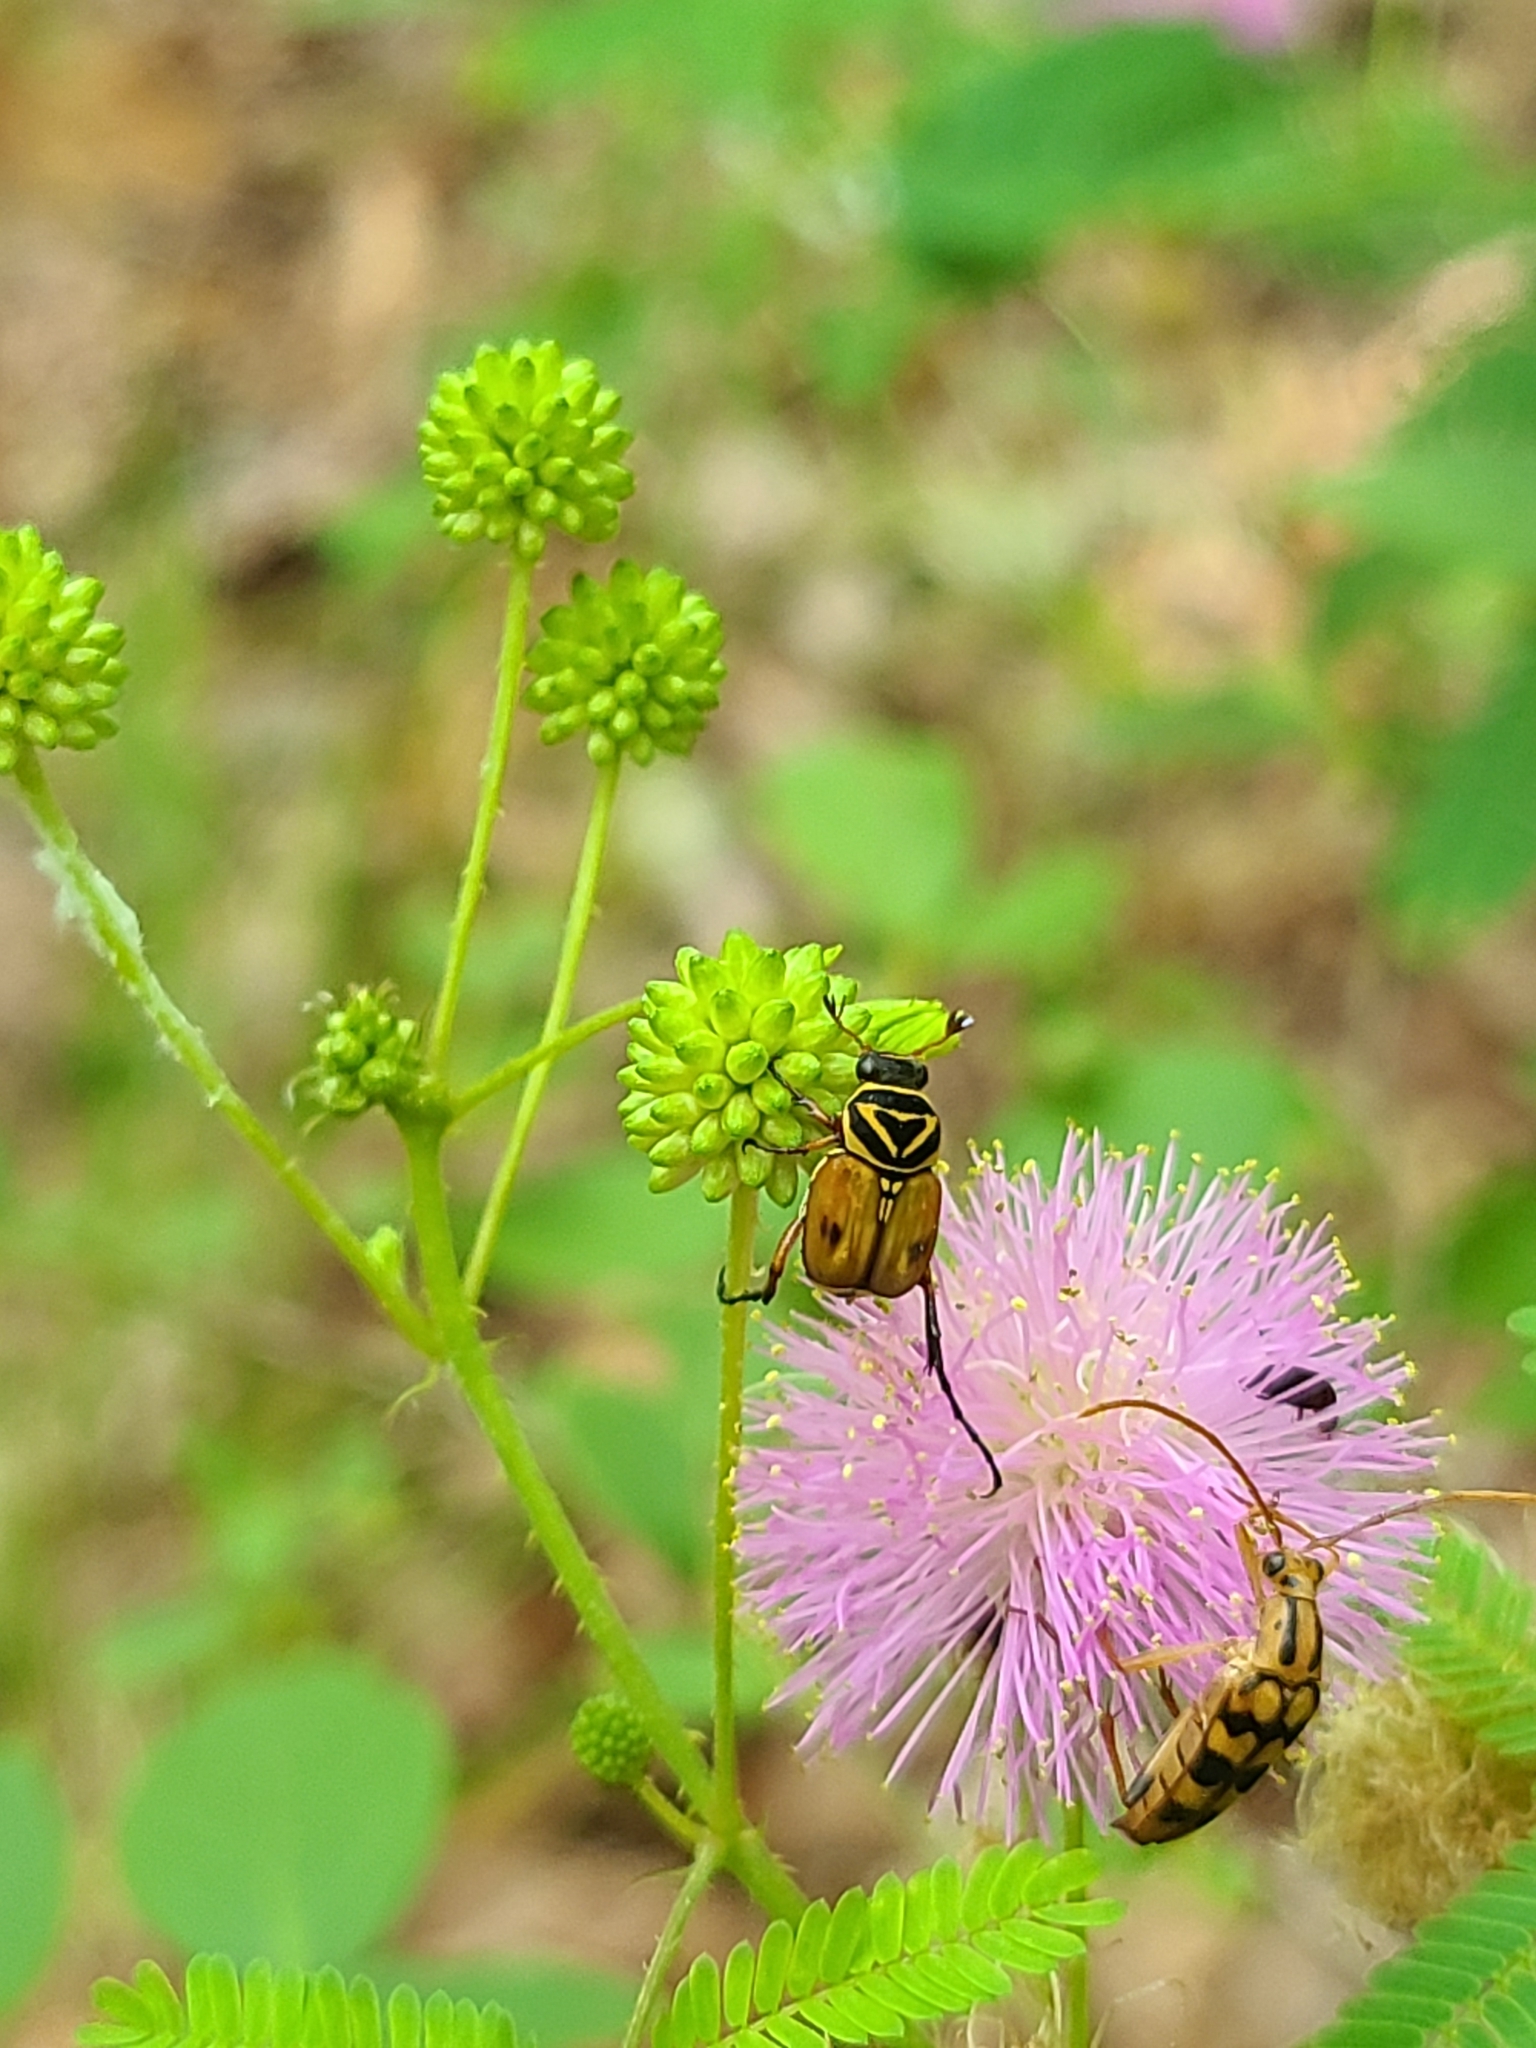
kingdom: Animalia
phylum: Arthropoda
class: Insecta
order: Coleoptera
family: Scarabaeidae
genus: Trigonopeltastes
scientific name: Trigonopeltastes delta
